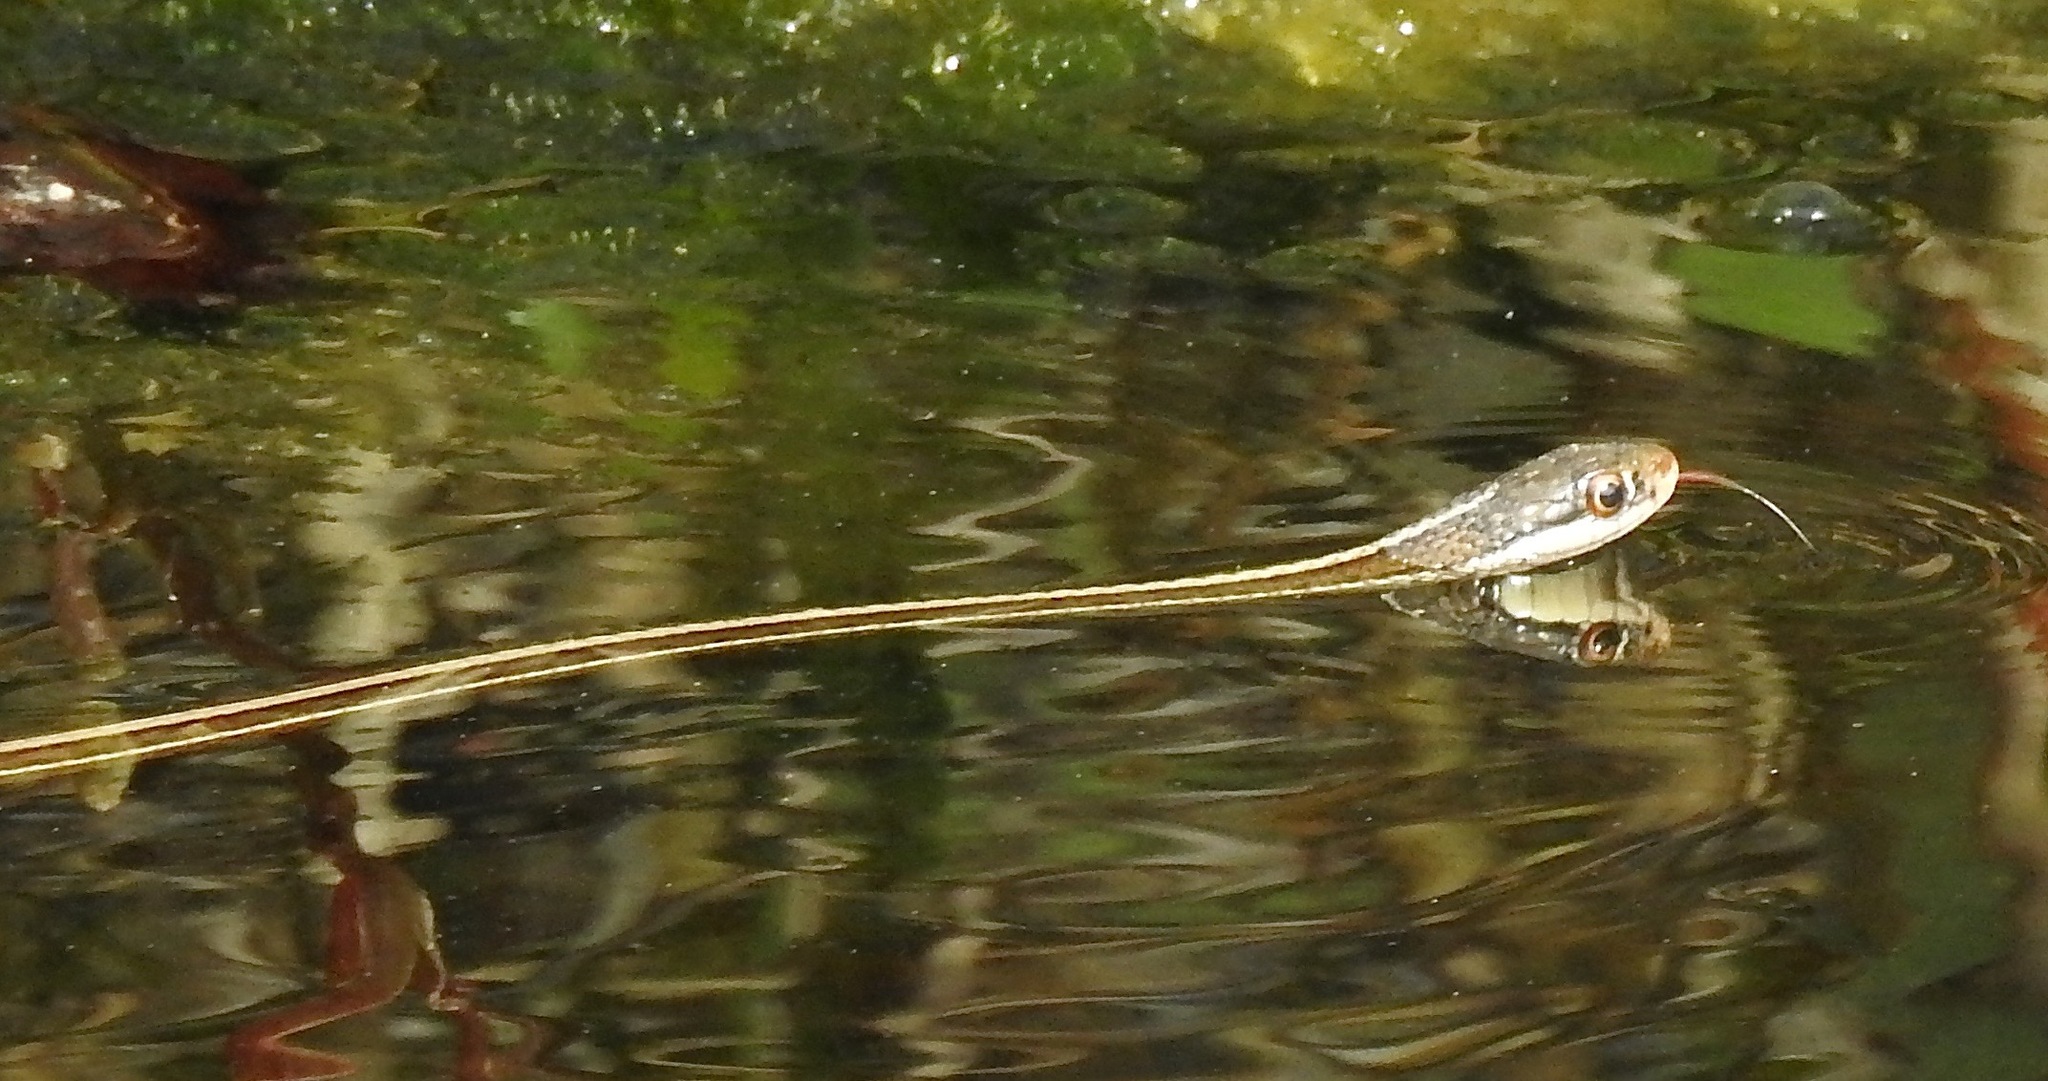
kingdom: Animalia
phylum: Chordata
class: Squamata
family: Colubridae
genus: Thamnophis
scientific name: Thamnophis saurita
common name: Eastern ribbonsnake
